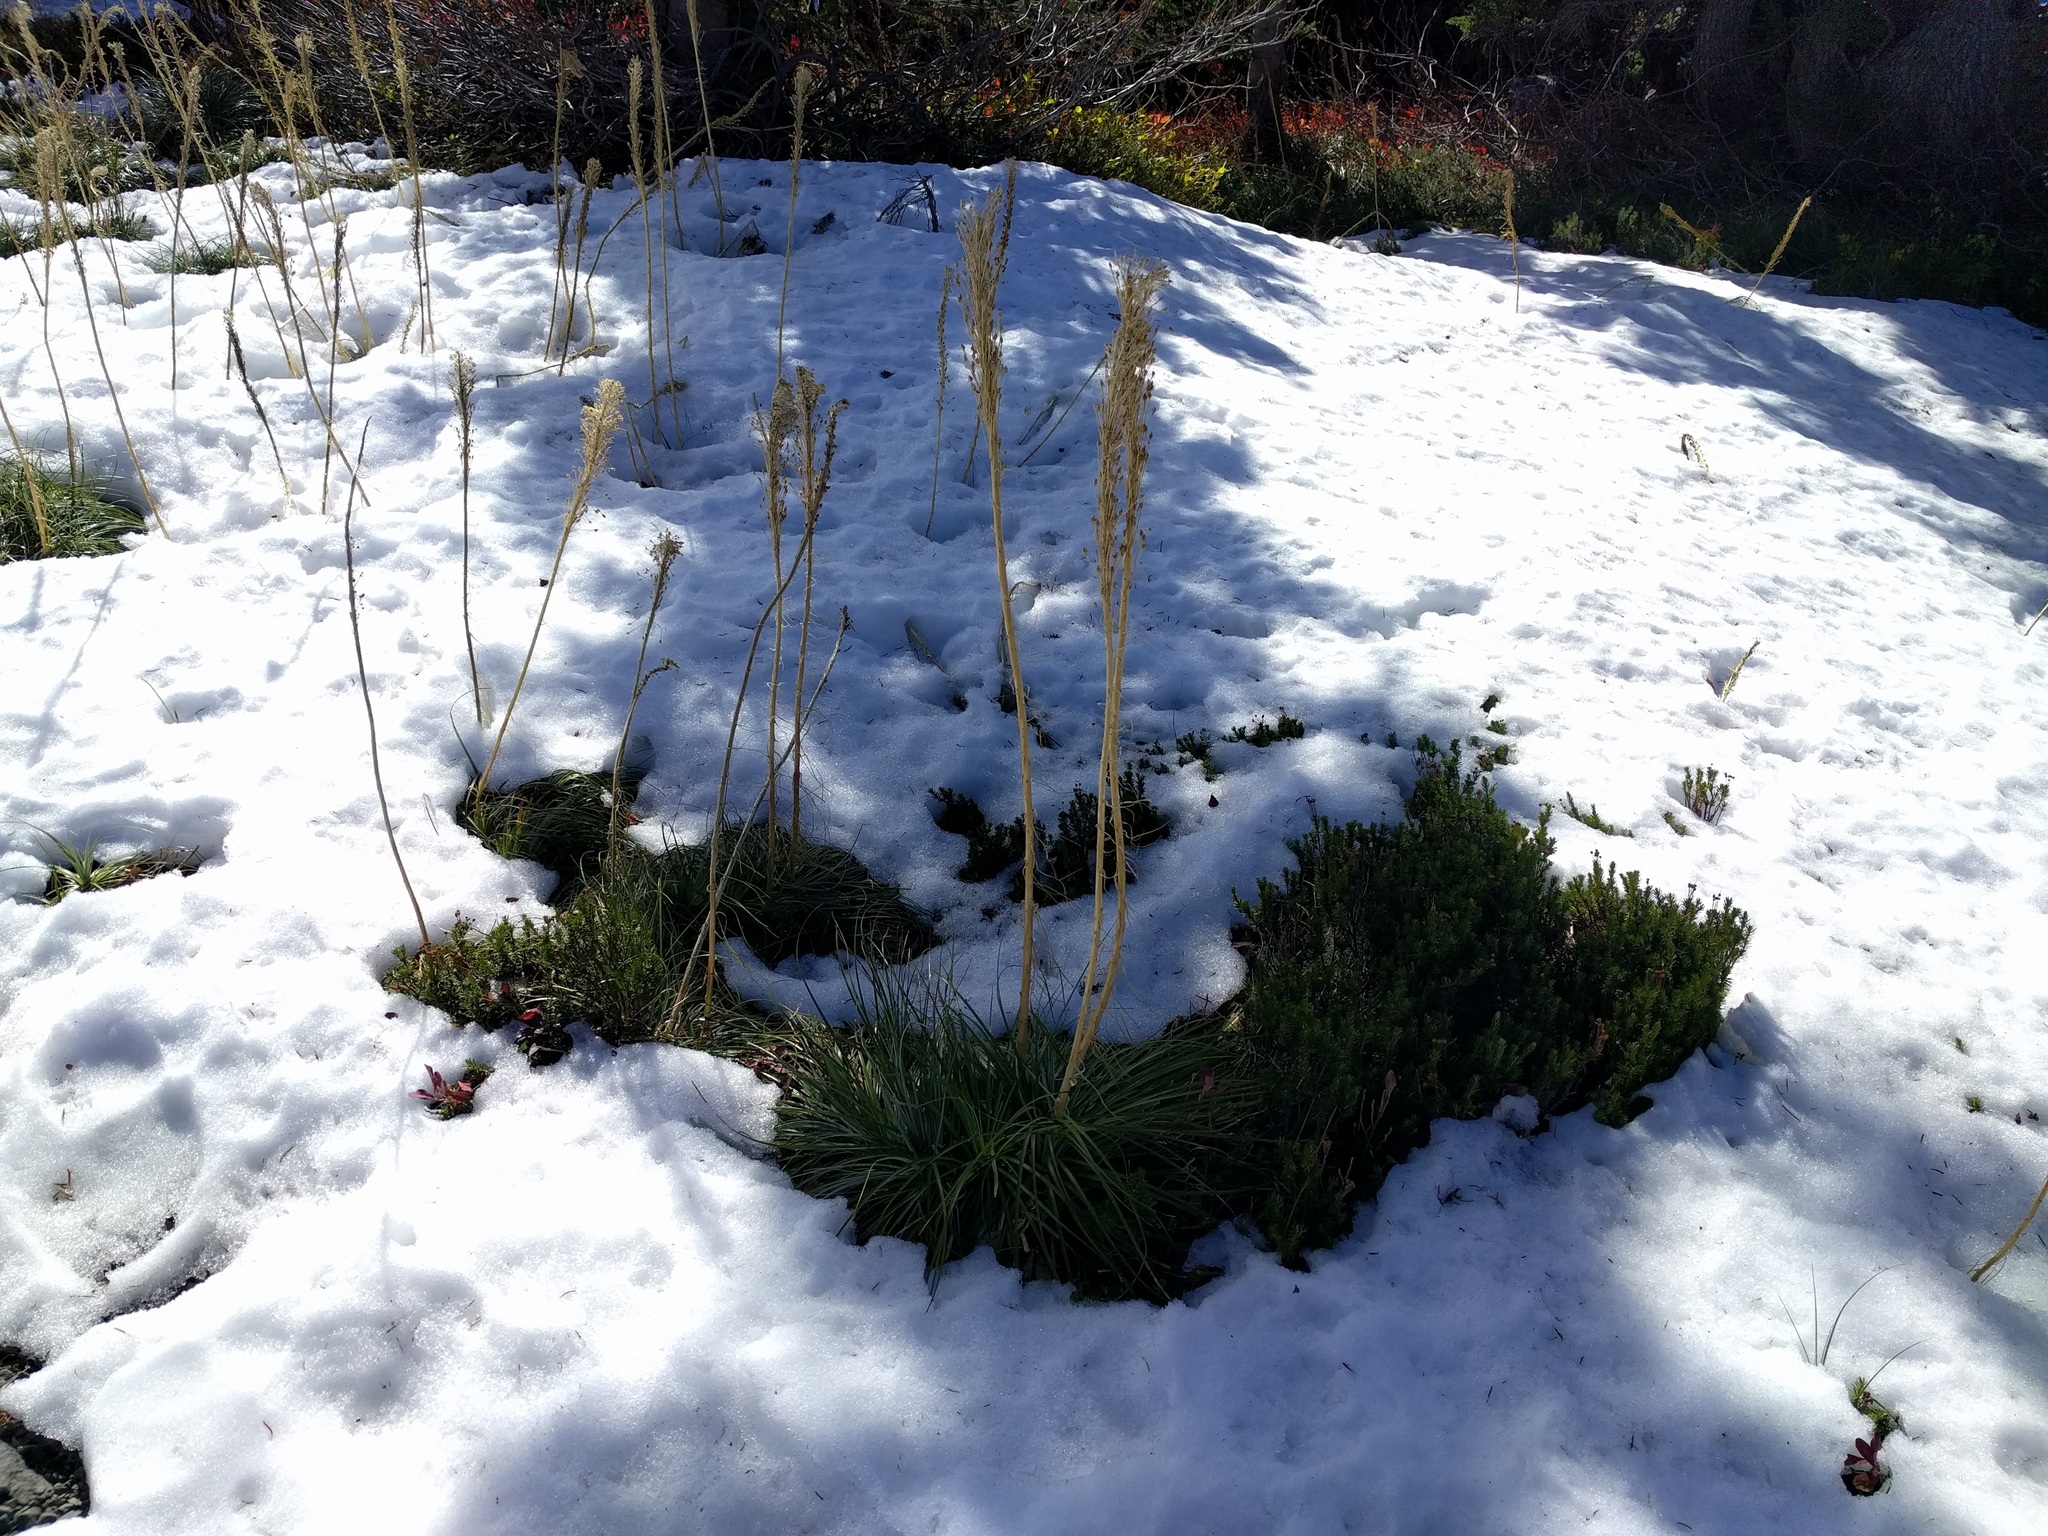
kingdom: Plantae
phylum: Tracheophyta
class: Liliopsida
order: Liliales
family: Melanthiaceae
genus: Xerophyllum
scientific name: Xerophyllum tenax
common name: Bear-grass
